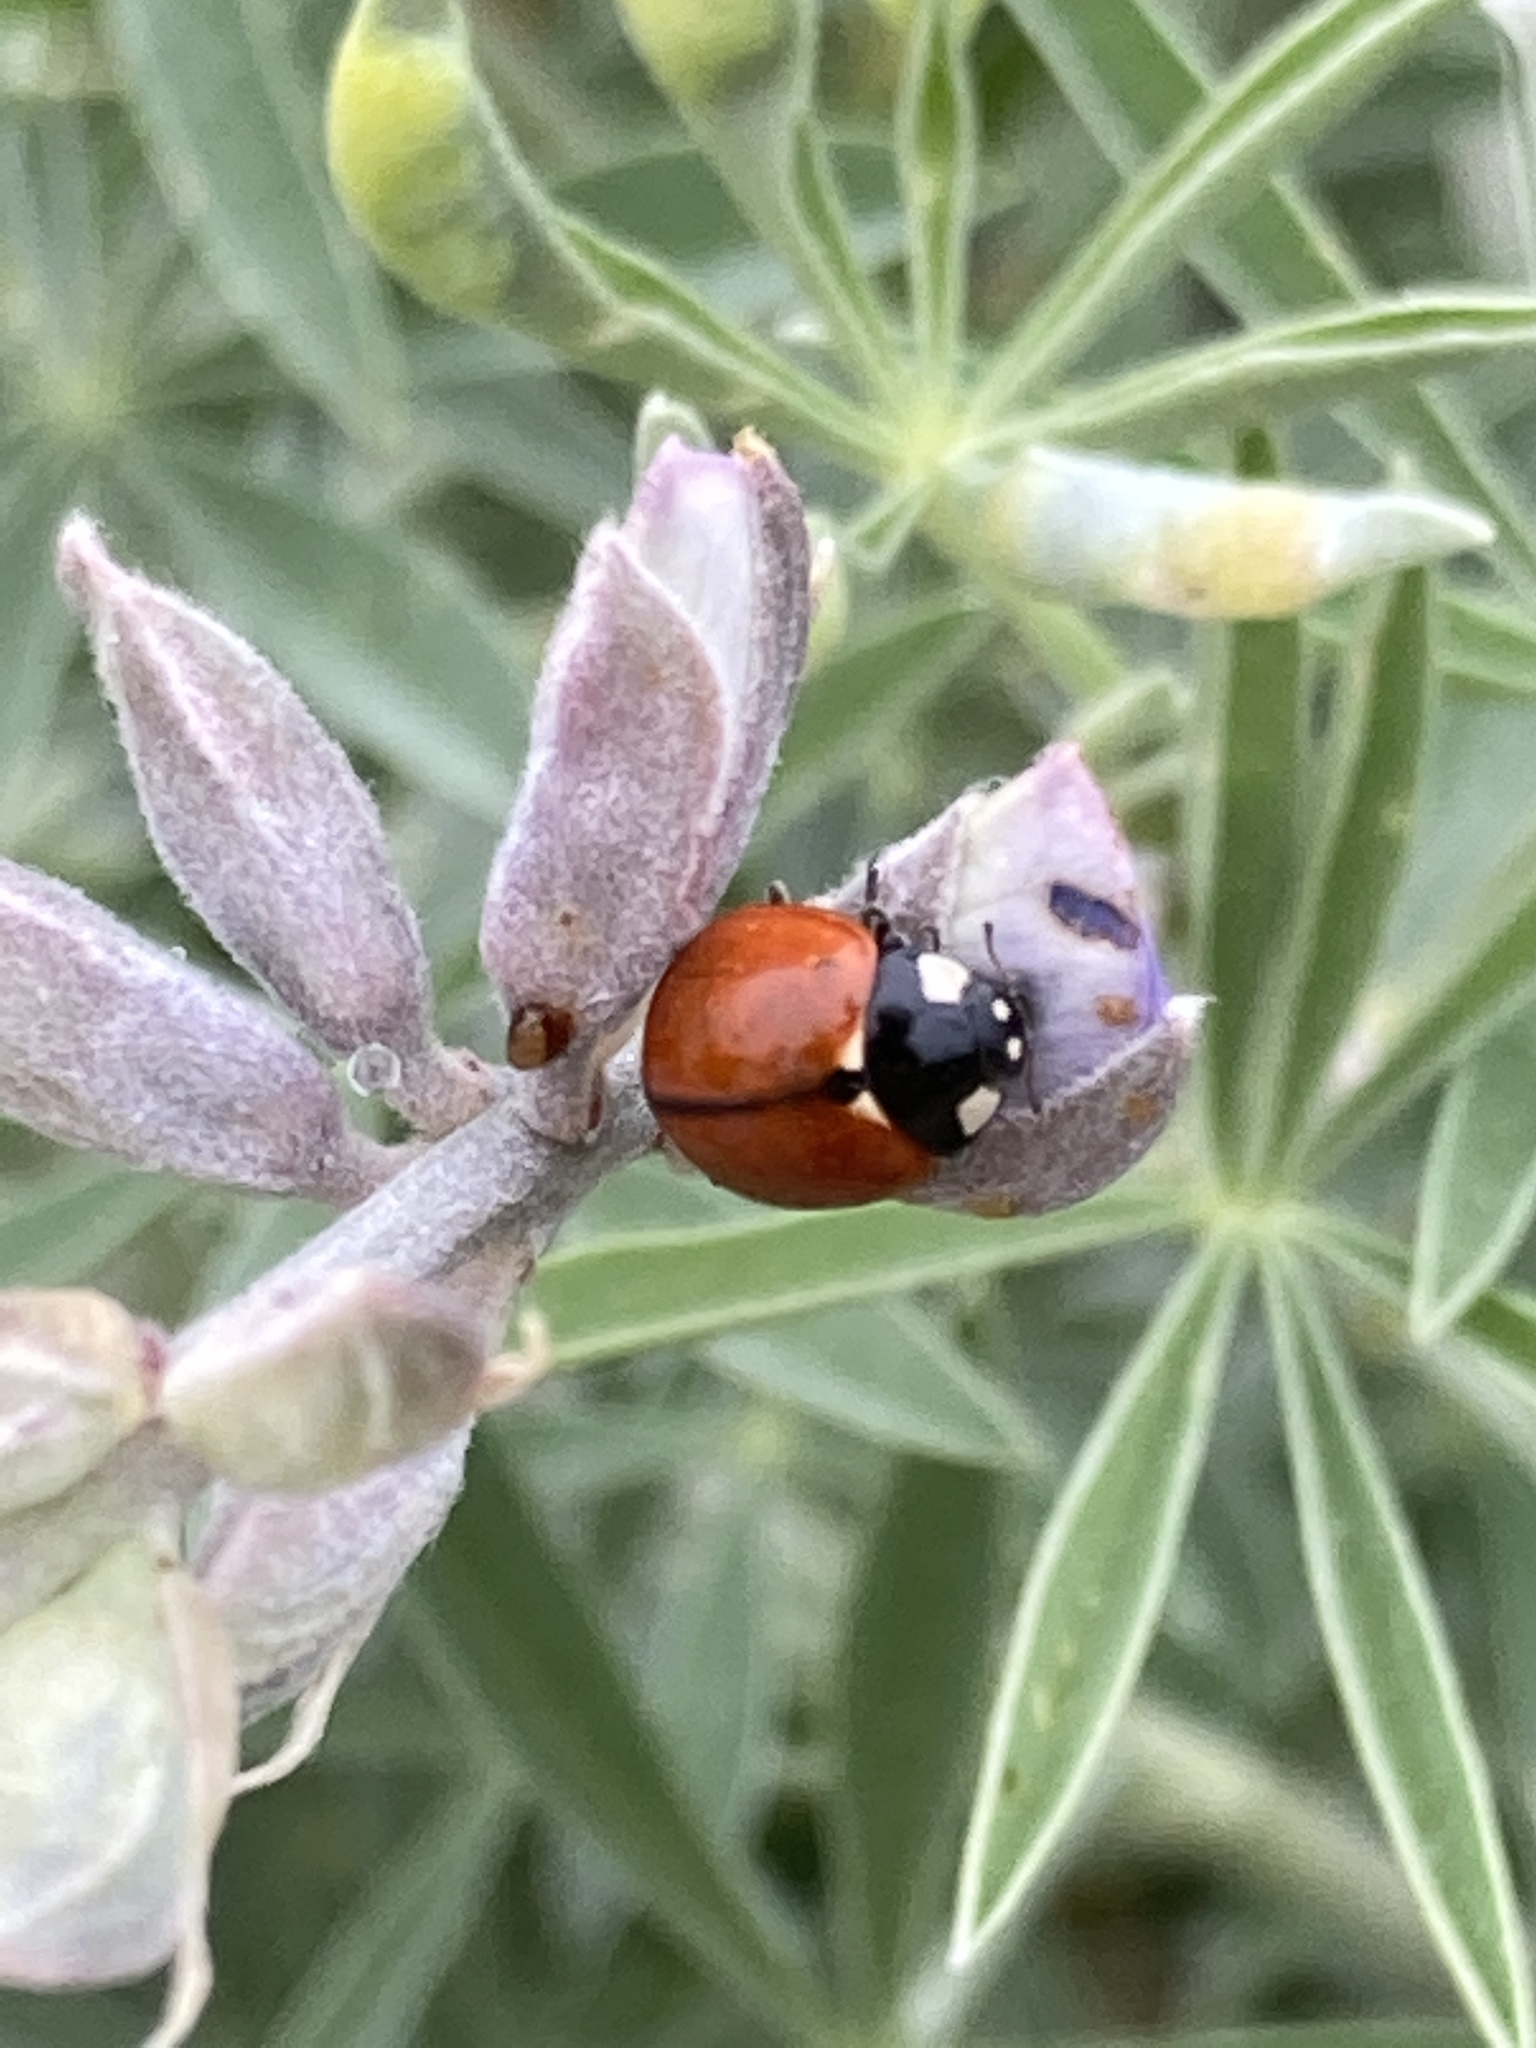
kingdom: Animalia
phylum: Arthropoda
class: Insecta
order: Coleoptera
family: Coccinellidae
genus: Coccinella
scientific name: Coccinella californica
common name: Lady beetle
